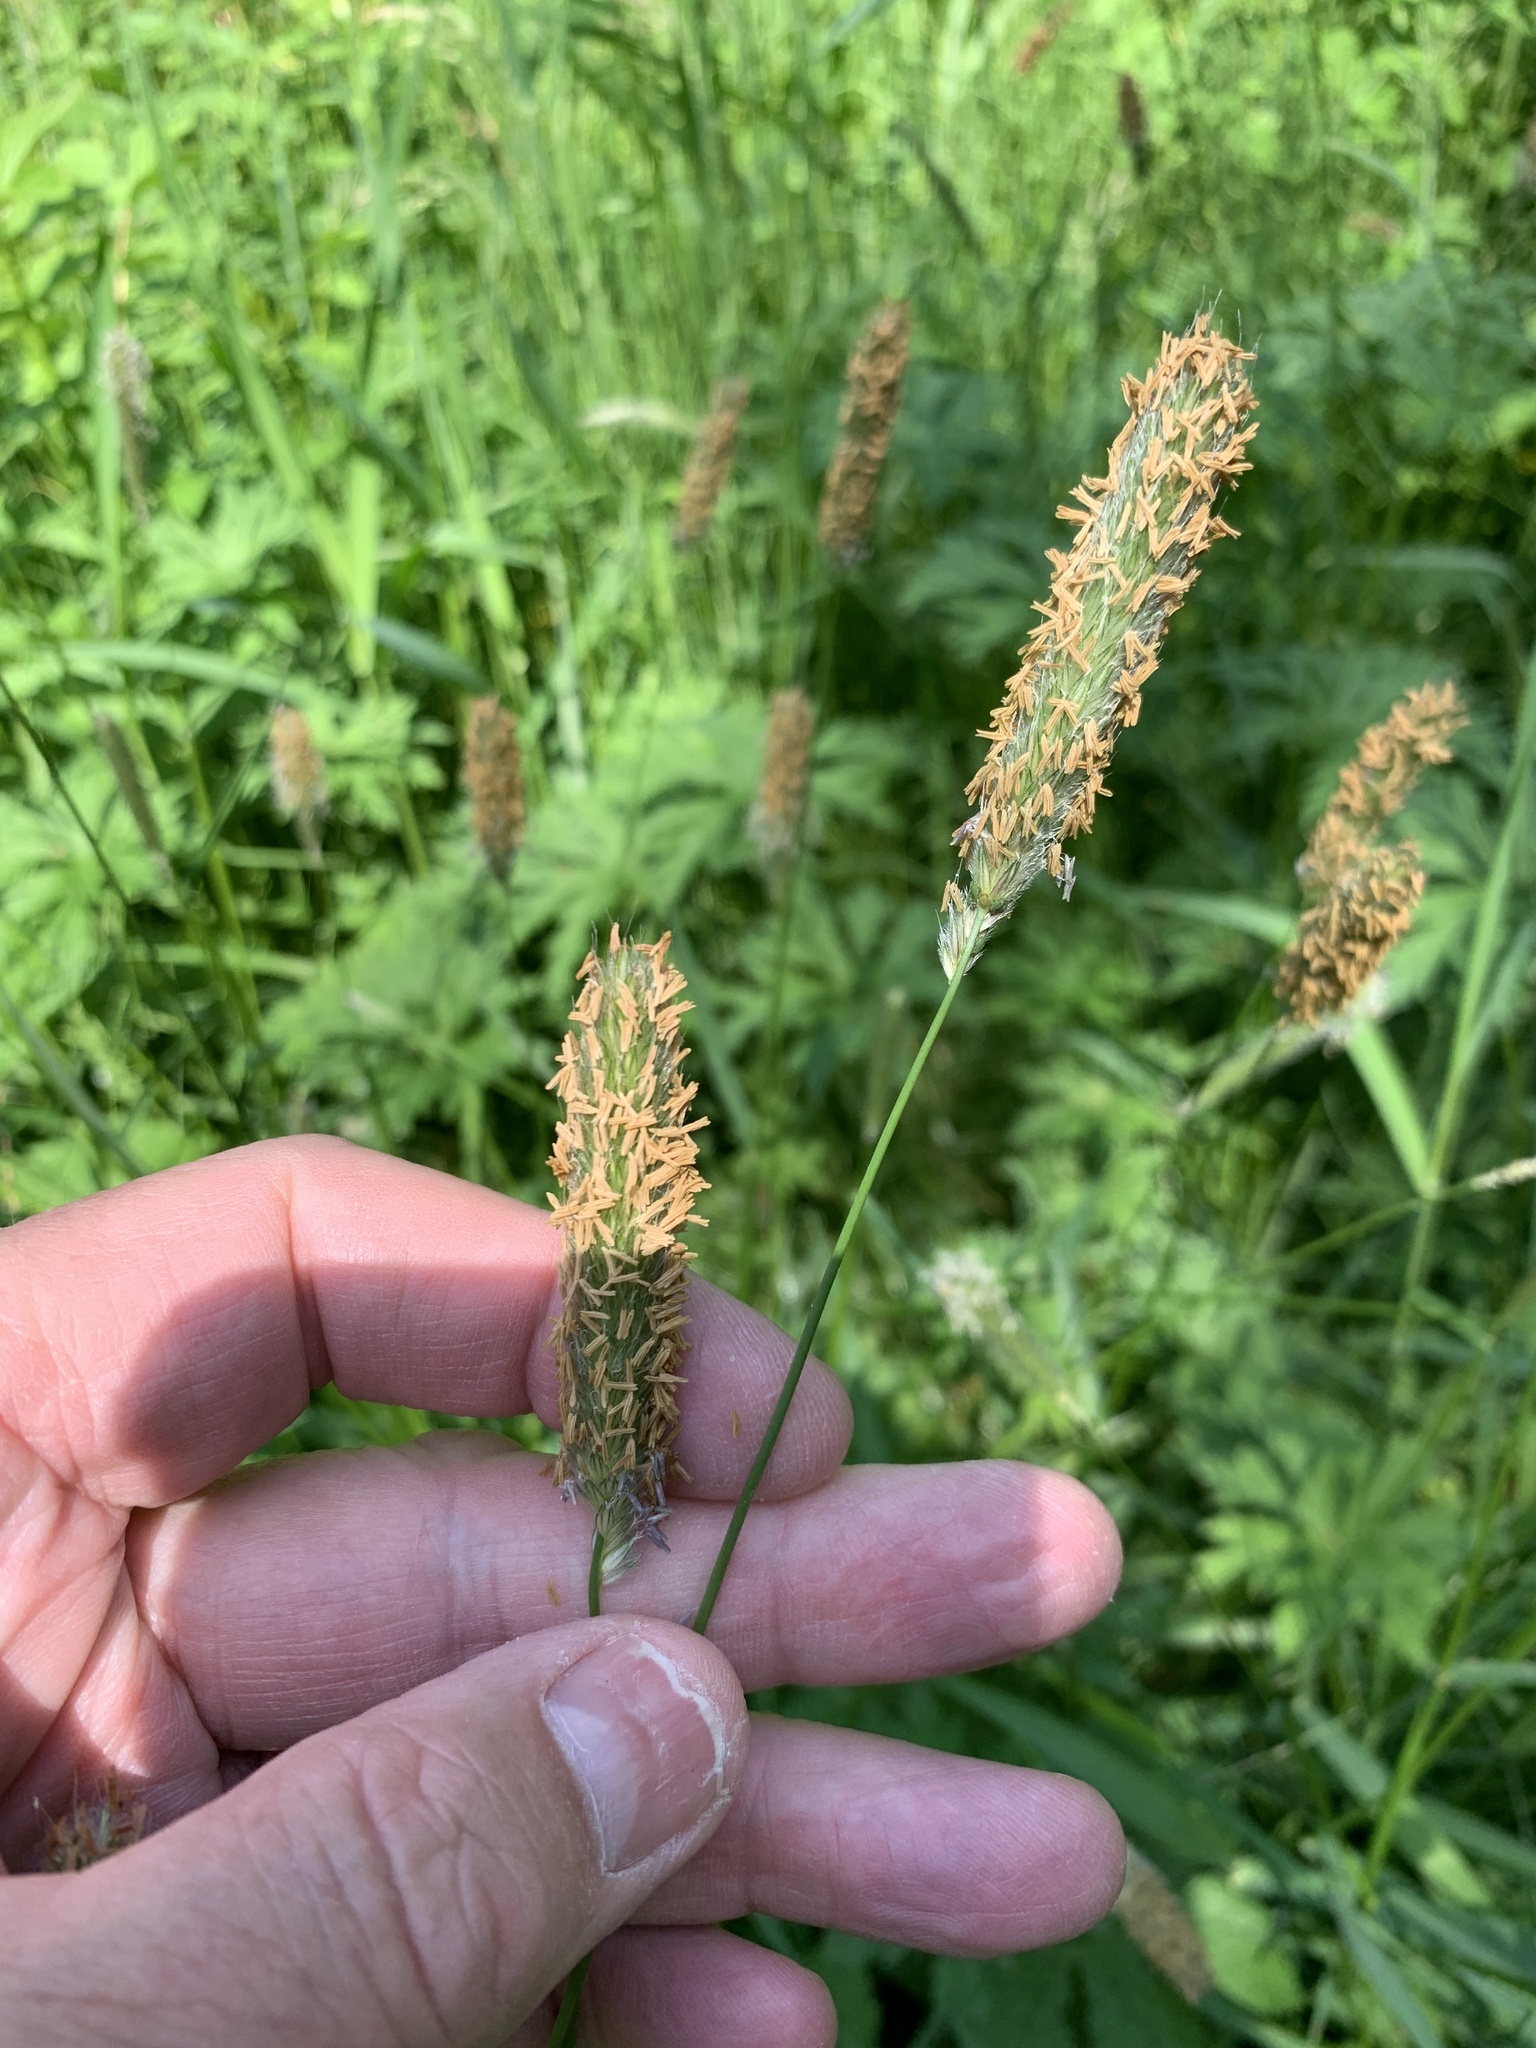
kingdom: Plantae
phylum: Tracheophyta
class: Liliopsida
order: Poales
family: Poaceae
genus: Alopecurus
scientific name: Alopecurus pratensis
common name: Meadow foxtail
